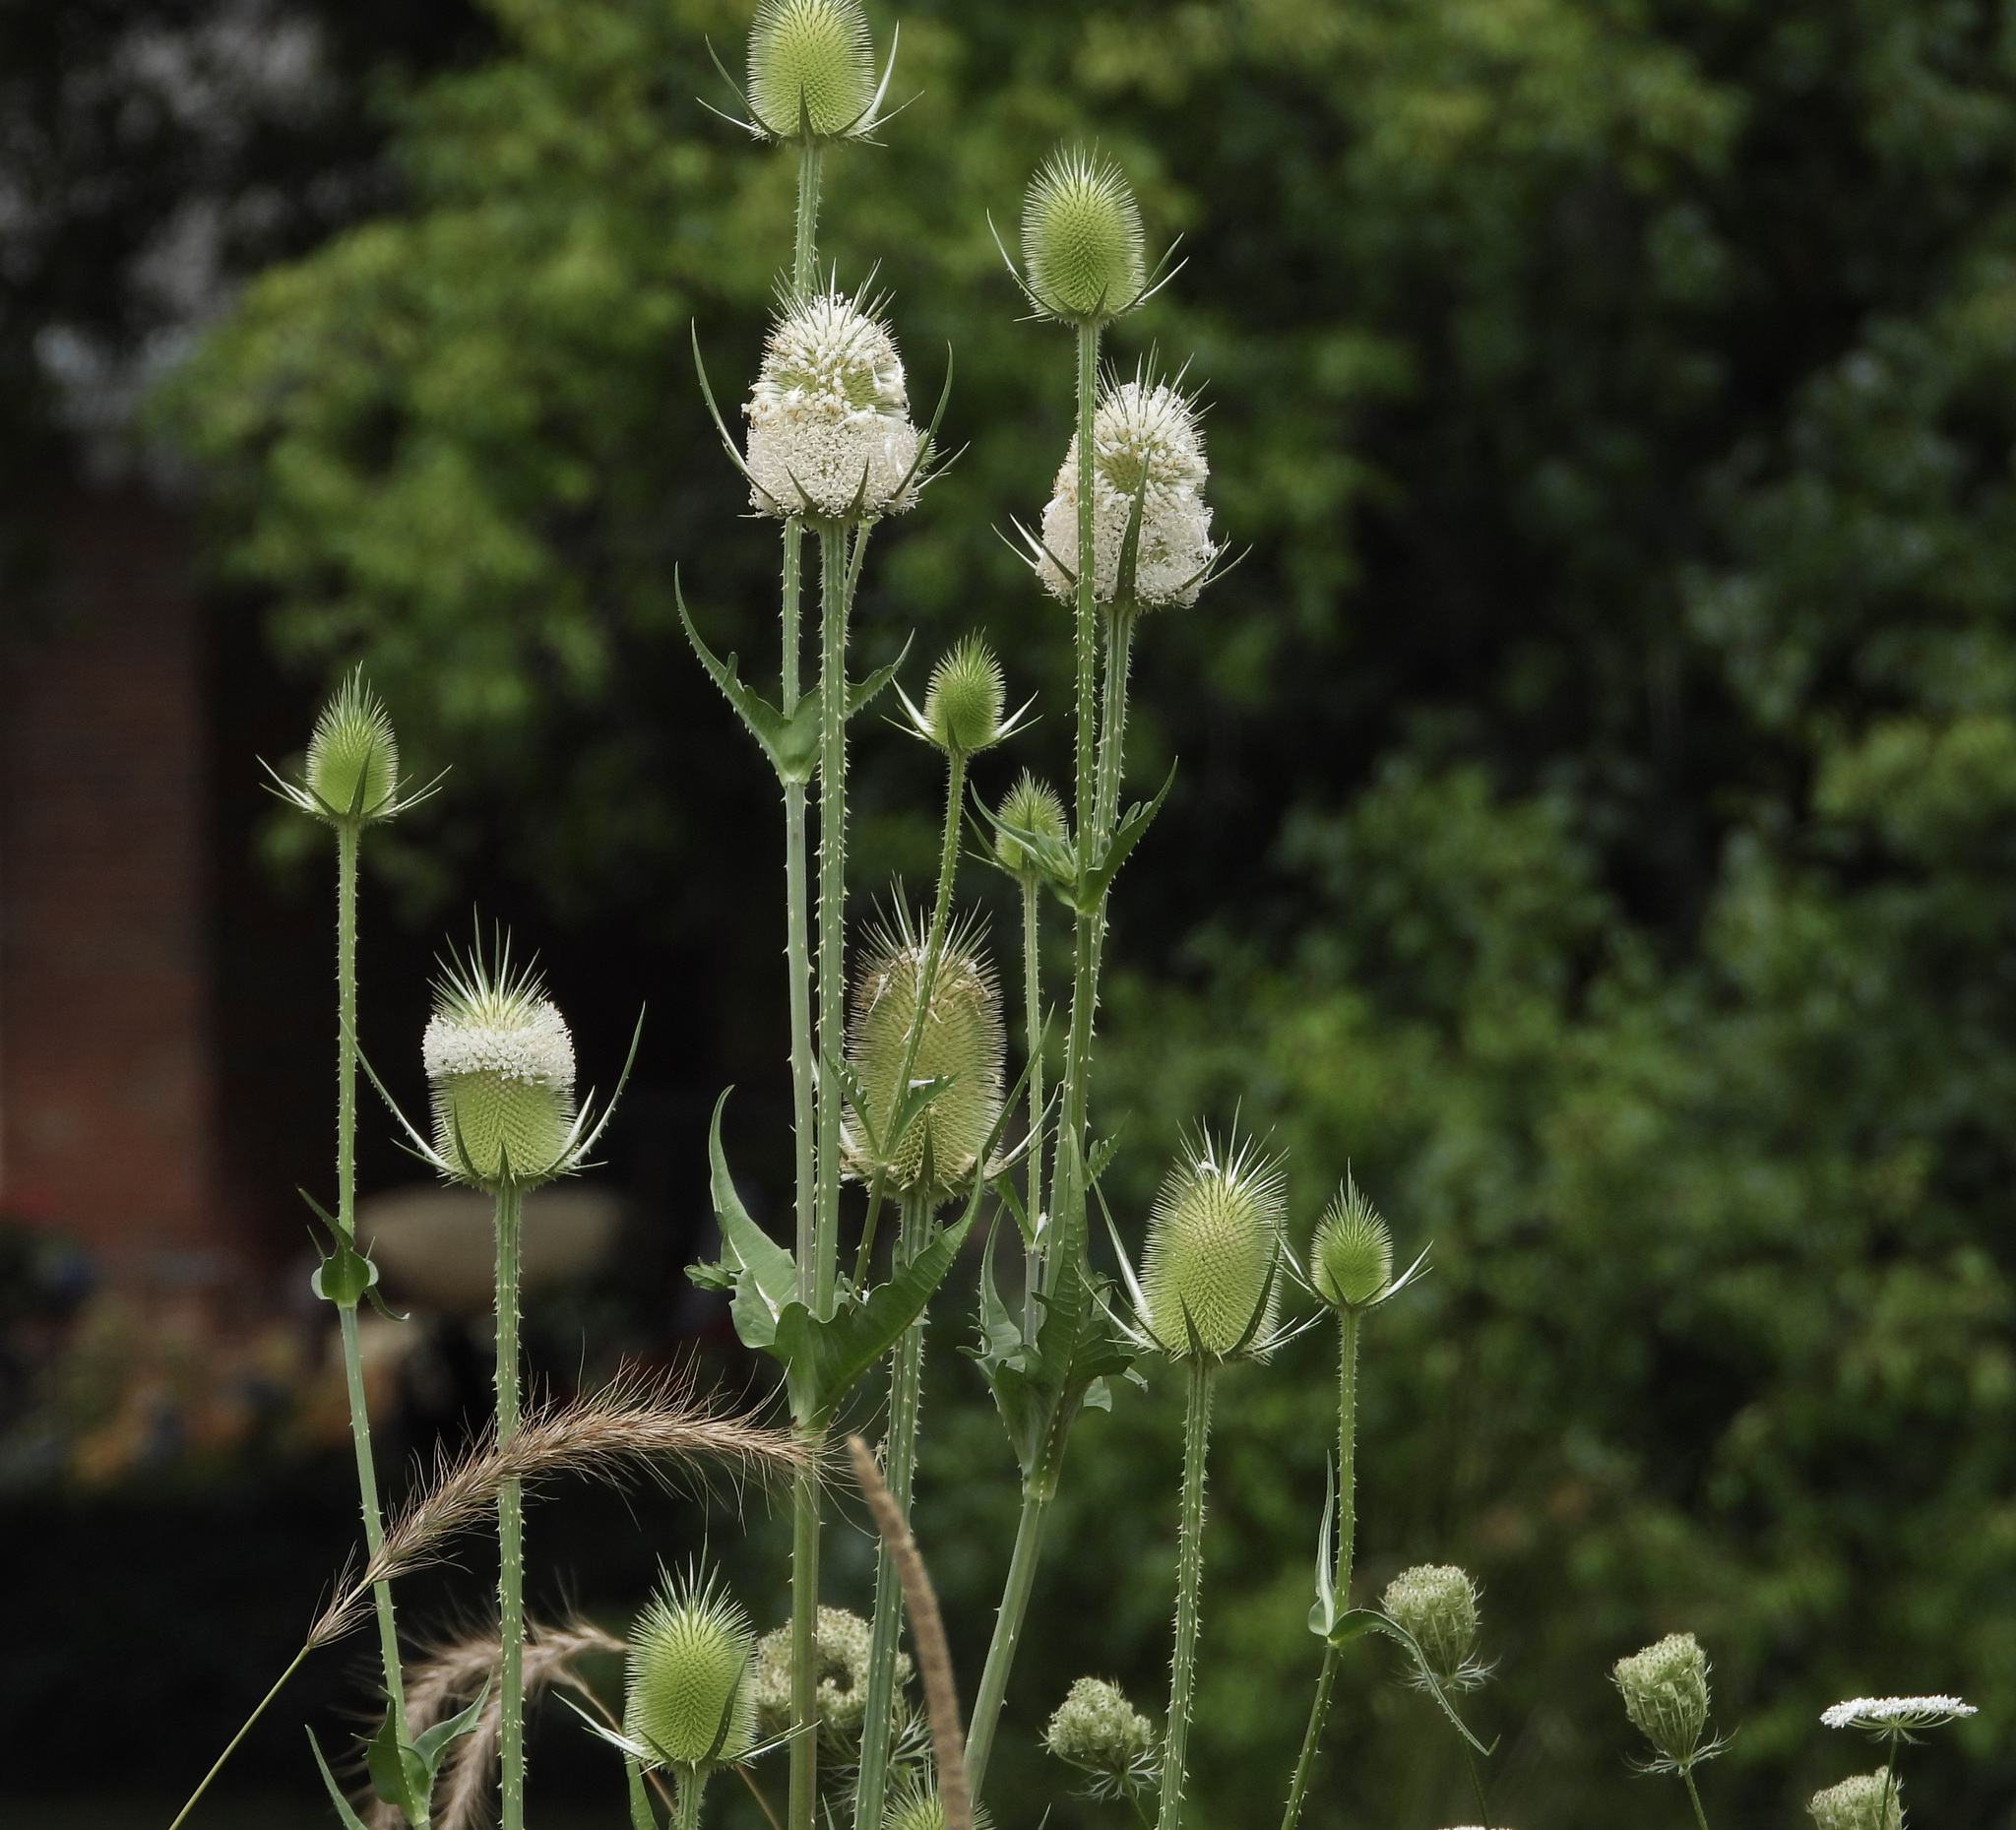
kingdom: Plantae
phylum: Tracheophyta
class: Magnoliopsida
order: Dipsacales
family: Caprifoliaceae
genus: Dipsacus
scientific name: Dipsacus laciniatus
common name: Cut-leaved teasel
